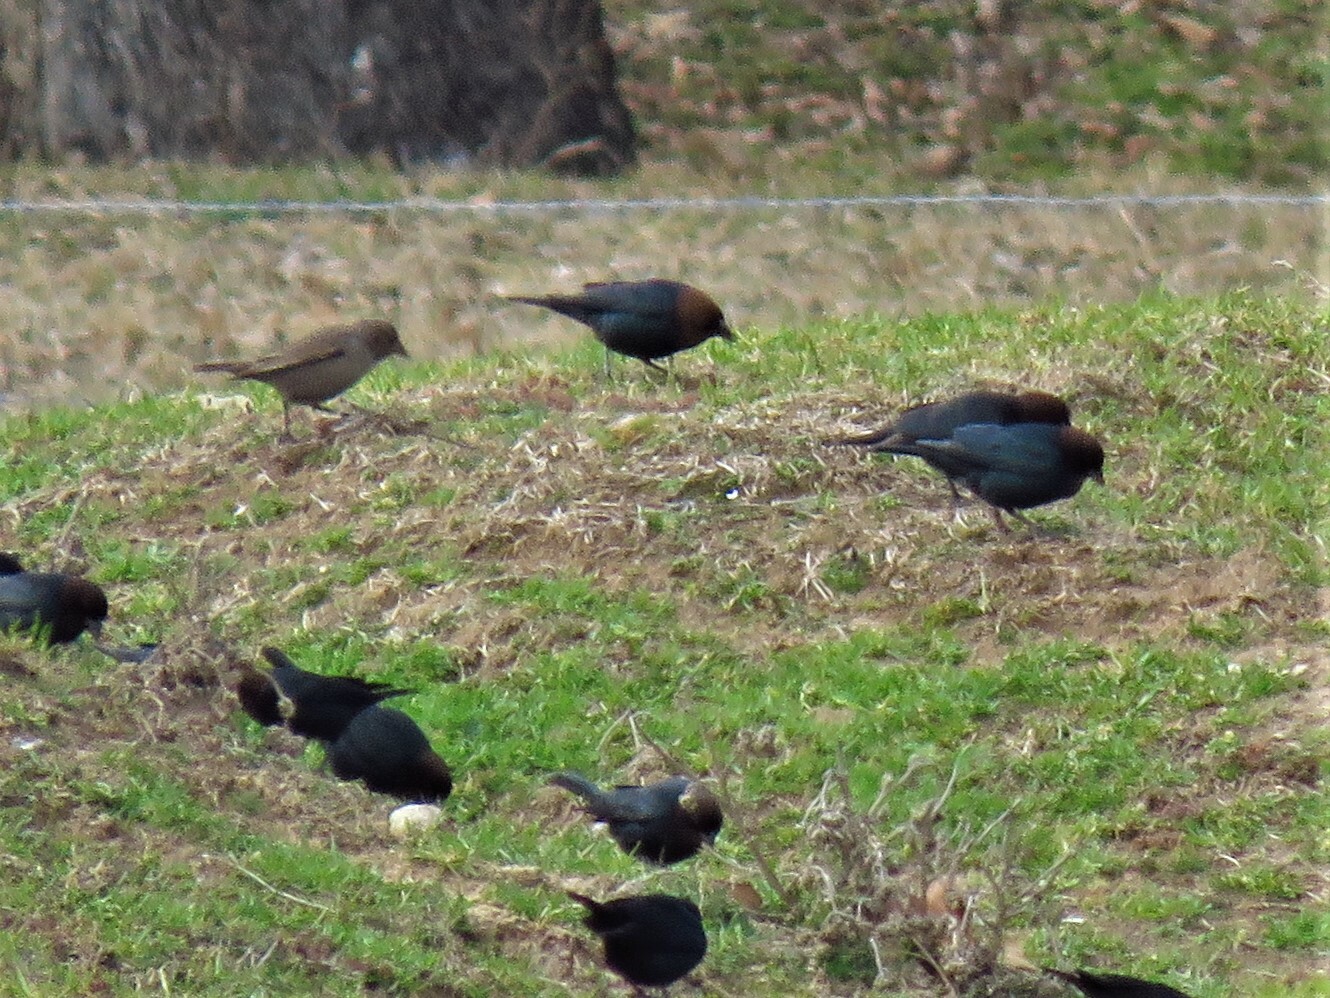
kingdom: Animalia
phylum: Chordata
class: Aves
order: Passeriformes
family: Icteridae
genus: Molothrus
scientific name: Molothrus ater
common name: Brown-headed cowbird
